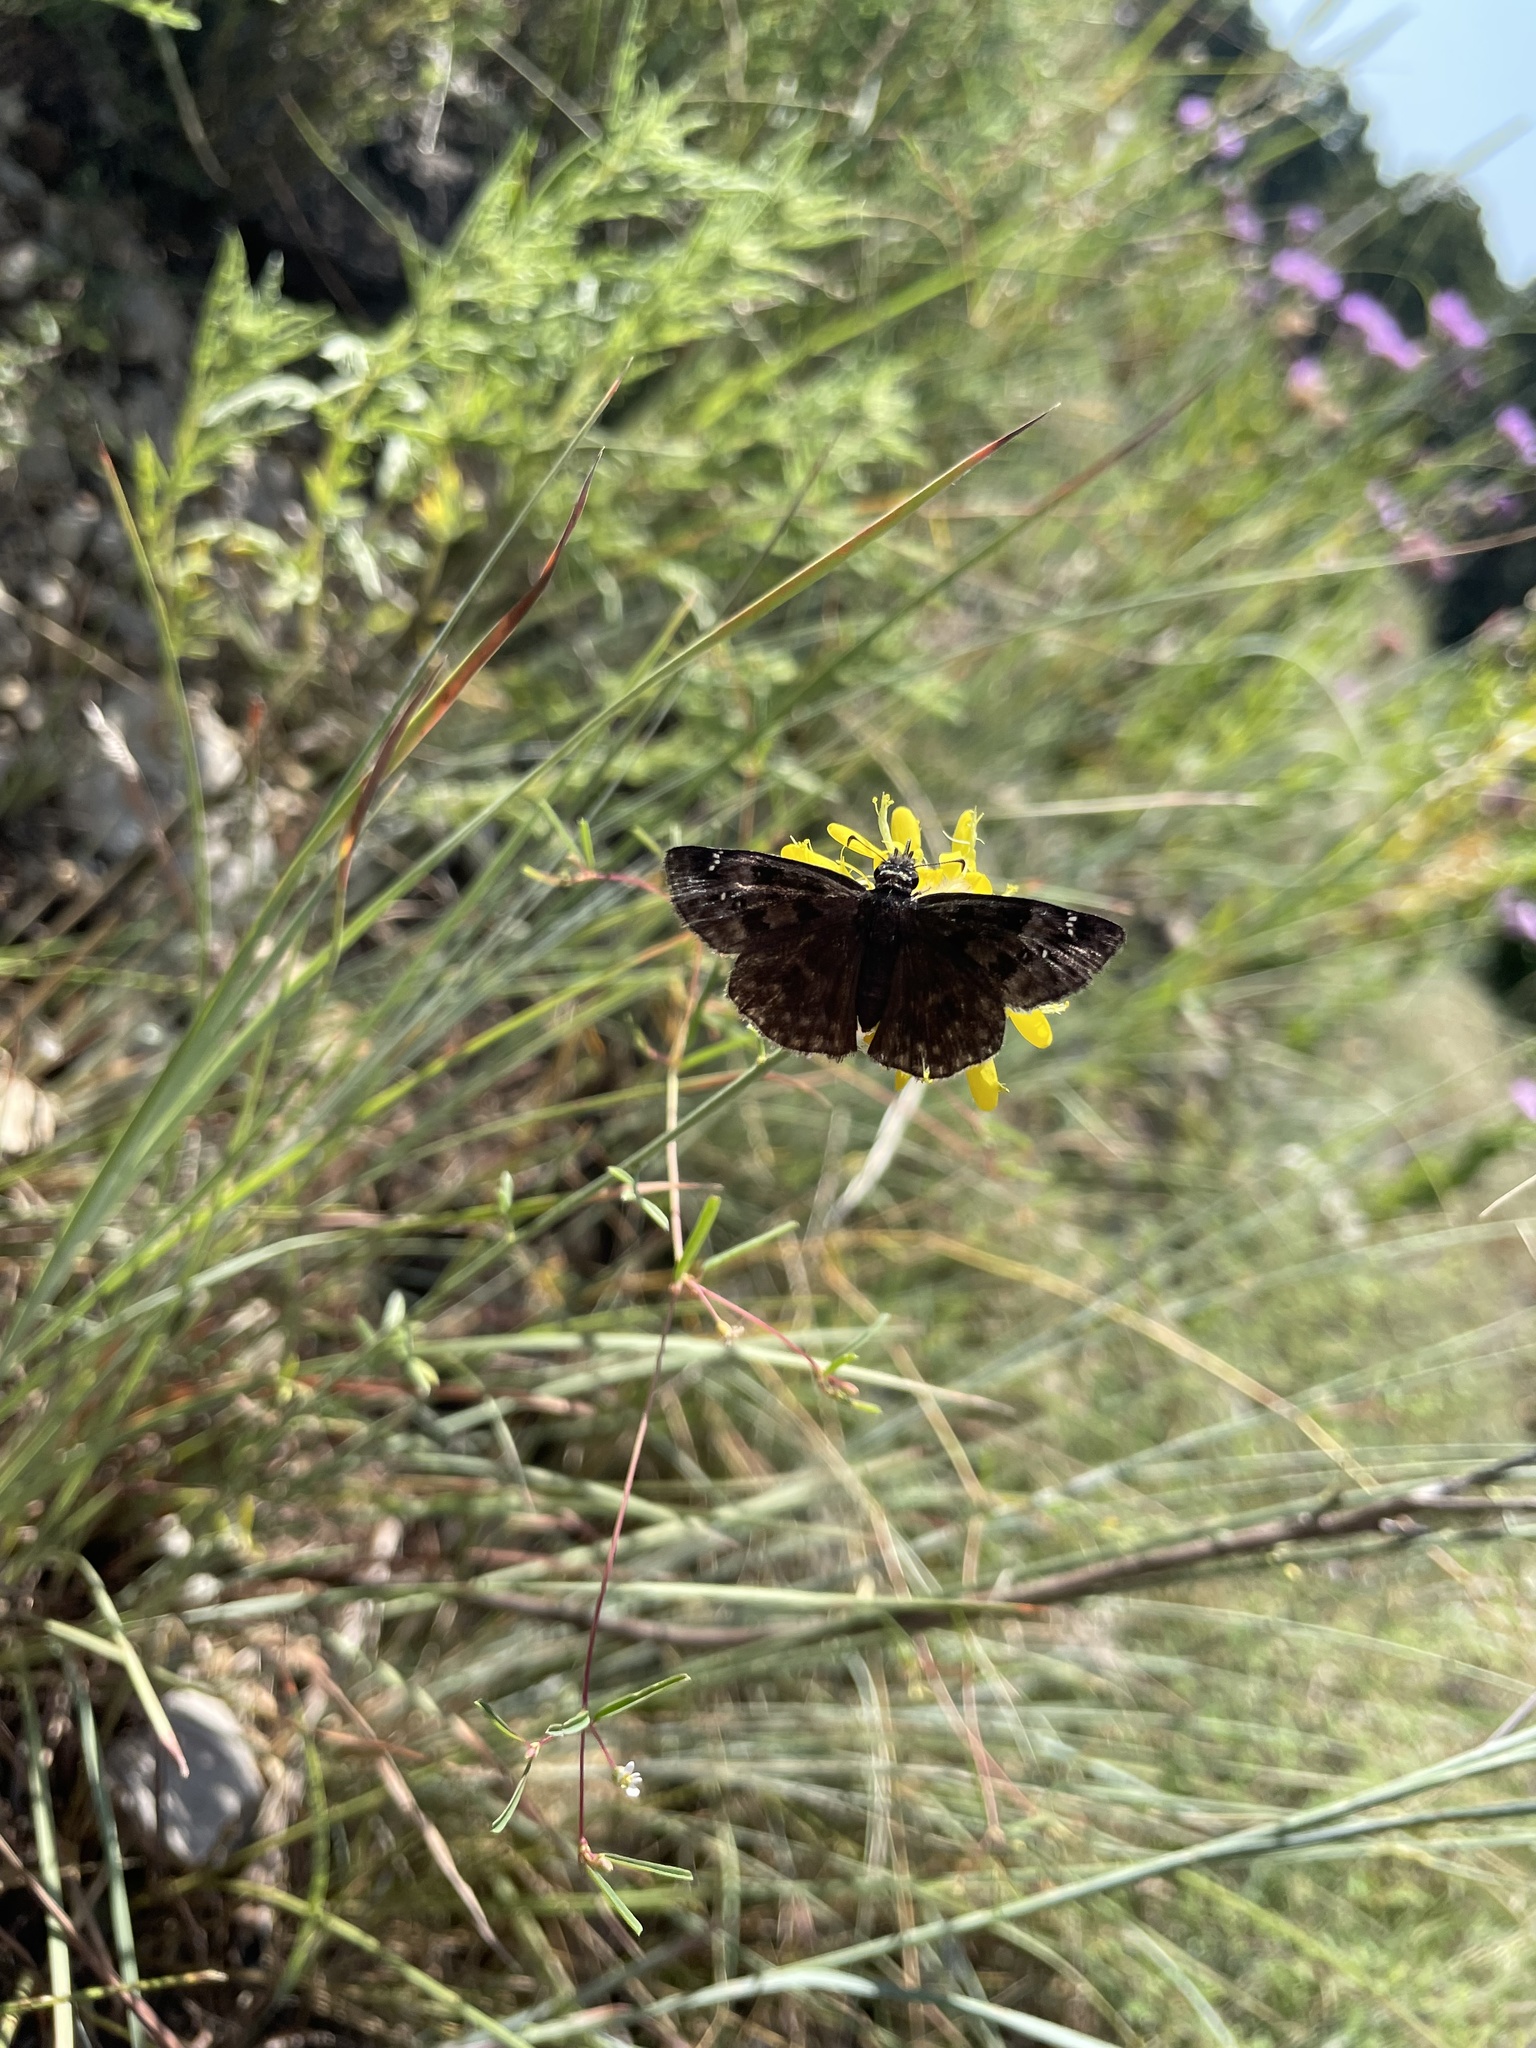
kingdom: Animalia
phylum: Arthropoda
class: Insecta
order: Lepidoptera
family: Hesperiidae
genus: Erynnis
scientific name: Erynnis baptisiae
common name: Wild indigo duskywing
